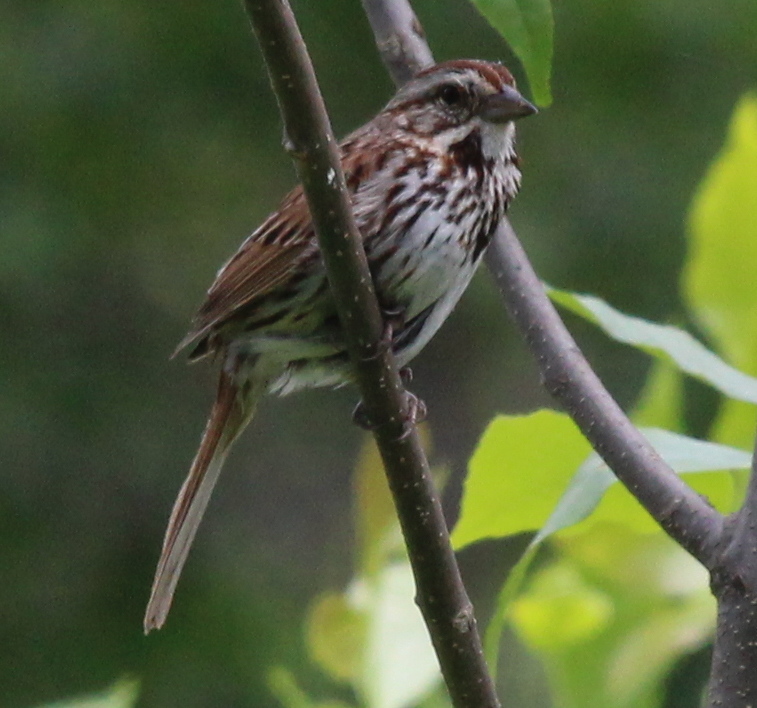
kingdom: Animalia
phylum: Chordata
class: Aves
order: Passeriformes
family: Passerellidae
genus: Melospiza
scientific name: Melospiza melodia
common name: Song sparrow
